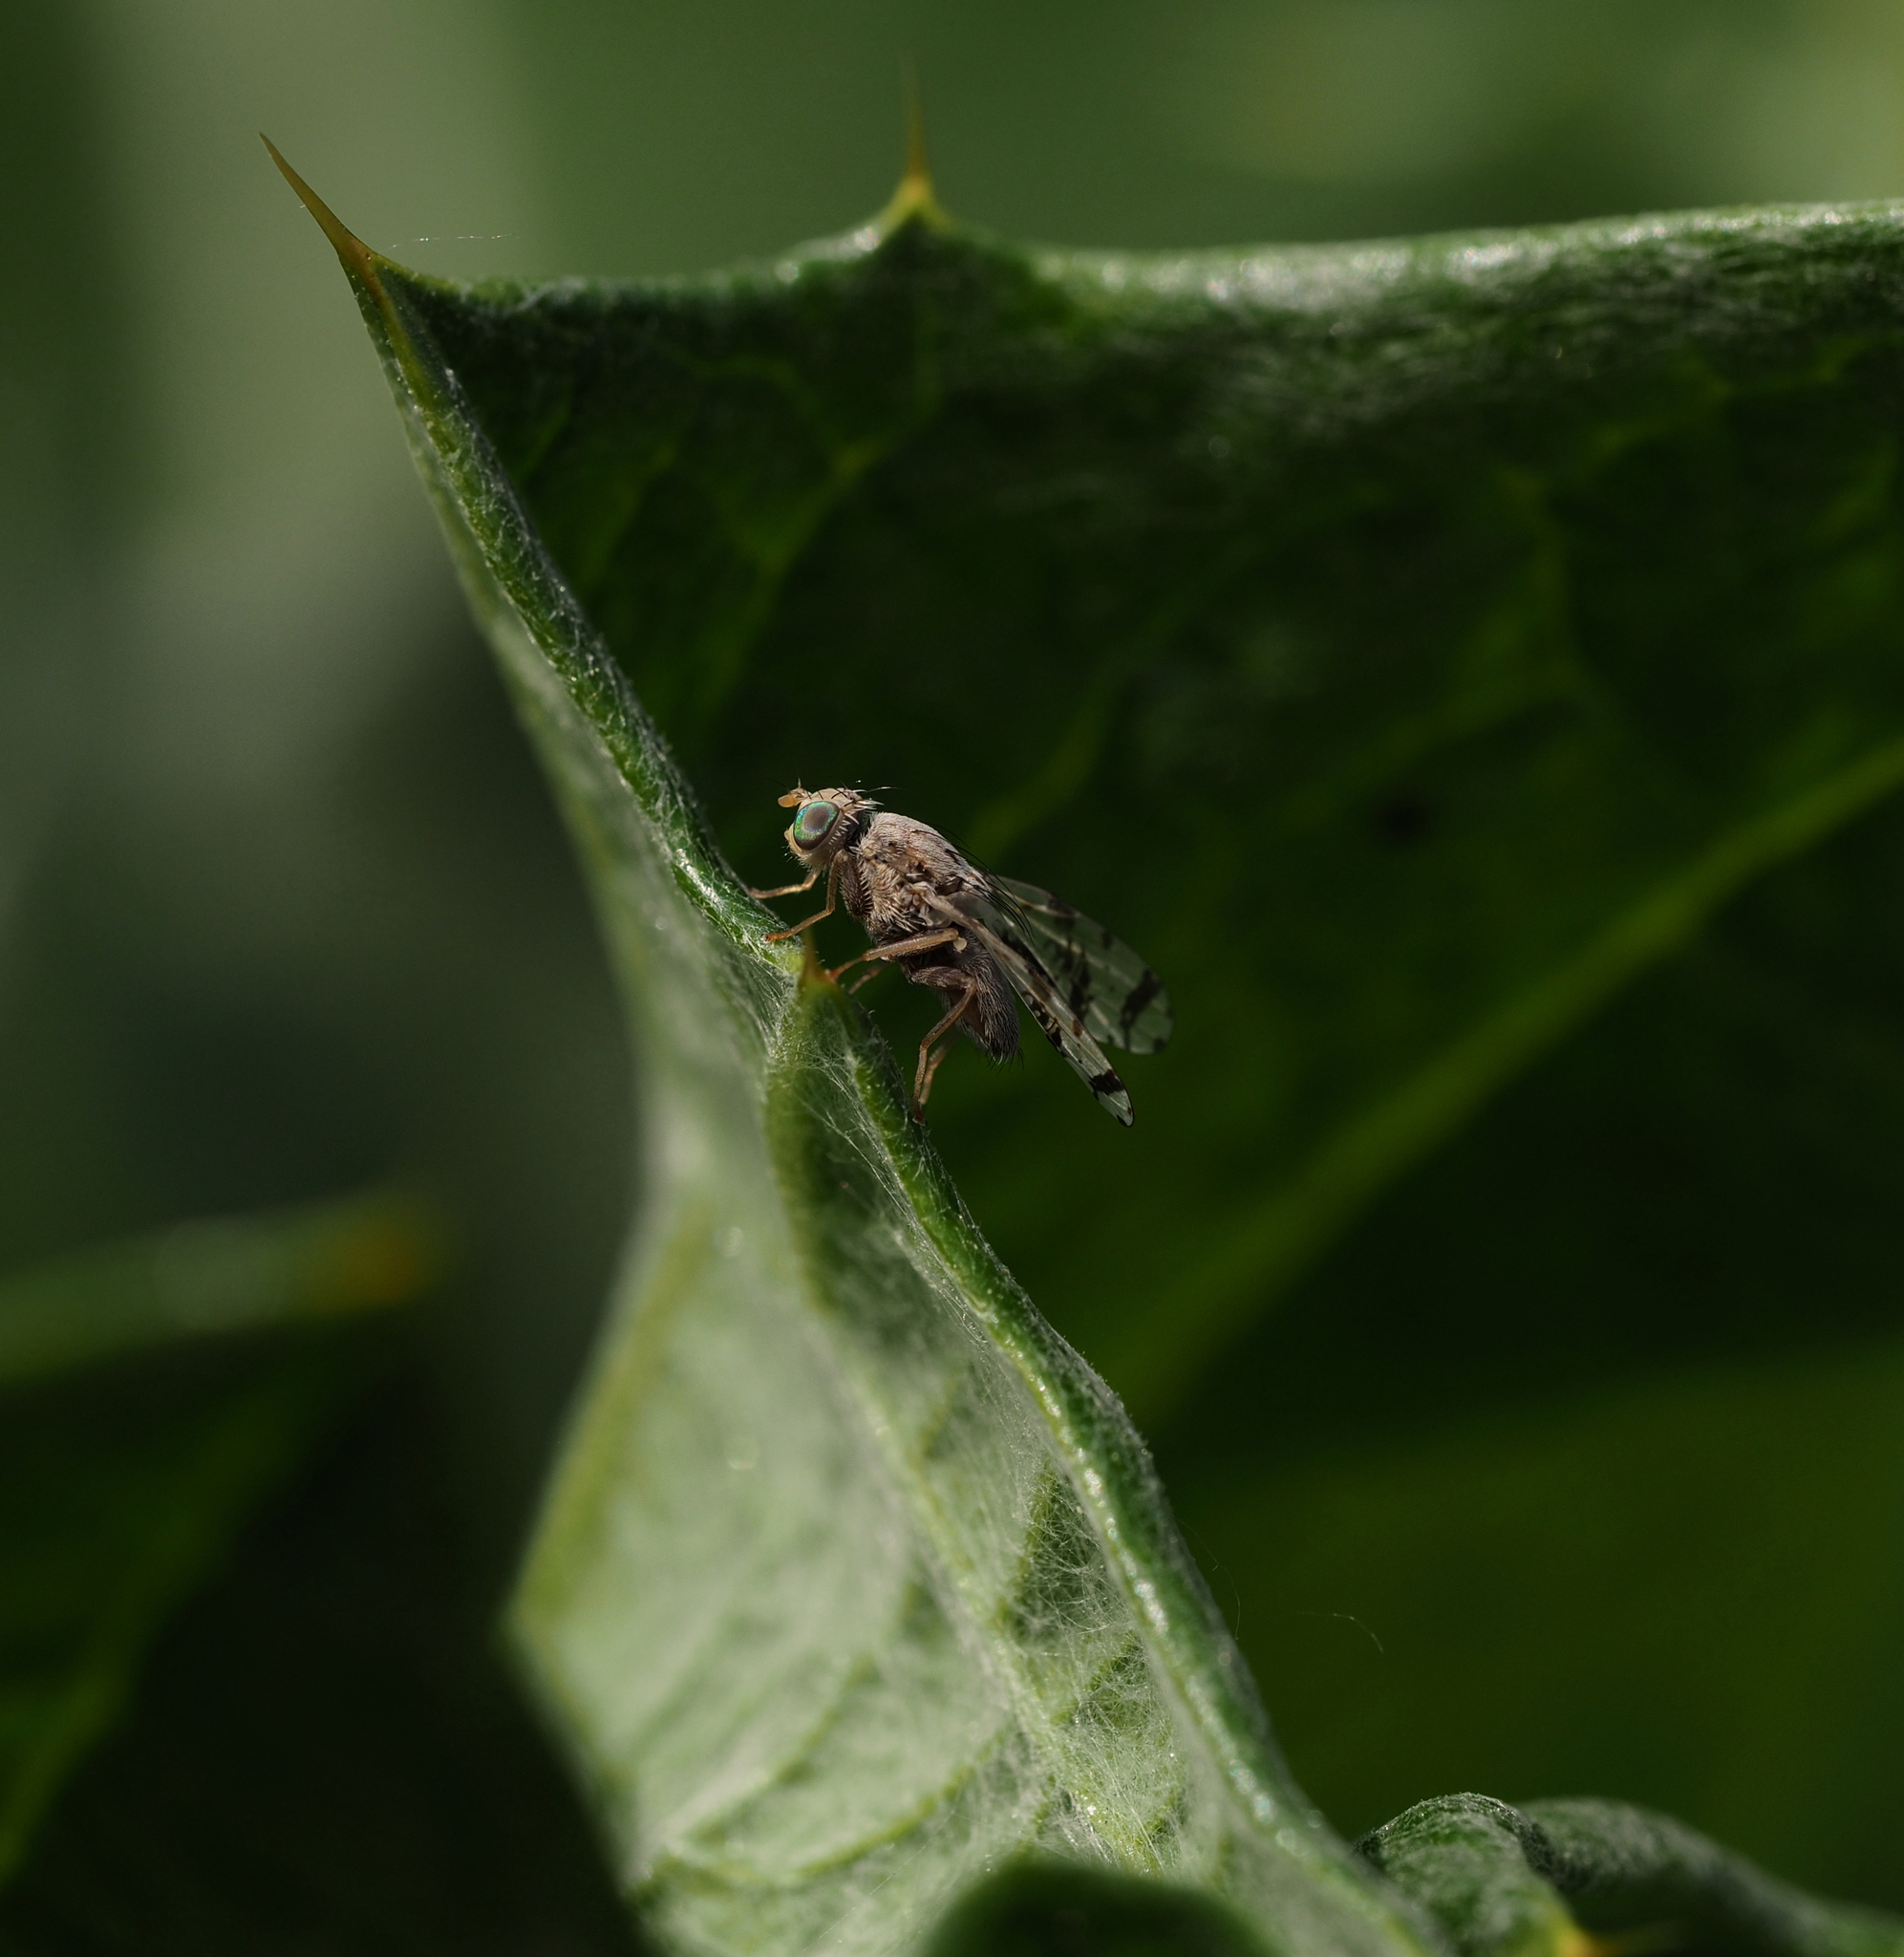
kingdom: Animalia
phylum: Arthropoda
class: Insecta
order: Diptera
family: Tephritidae
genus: Tephritis
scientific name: Tephritis postica
